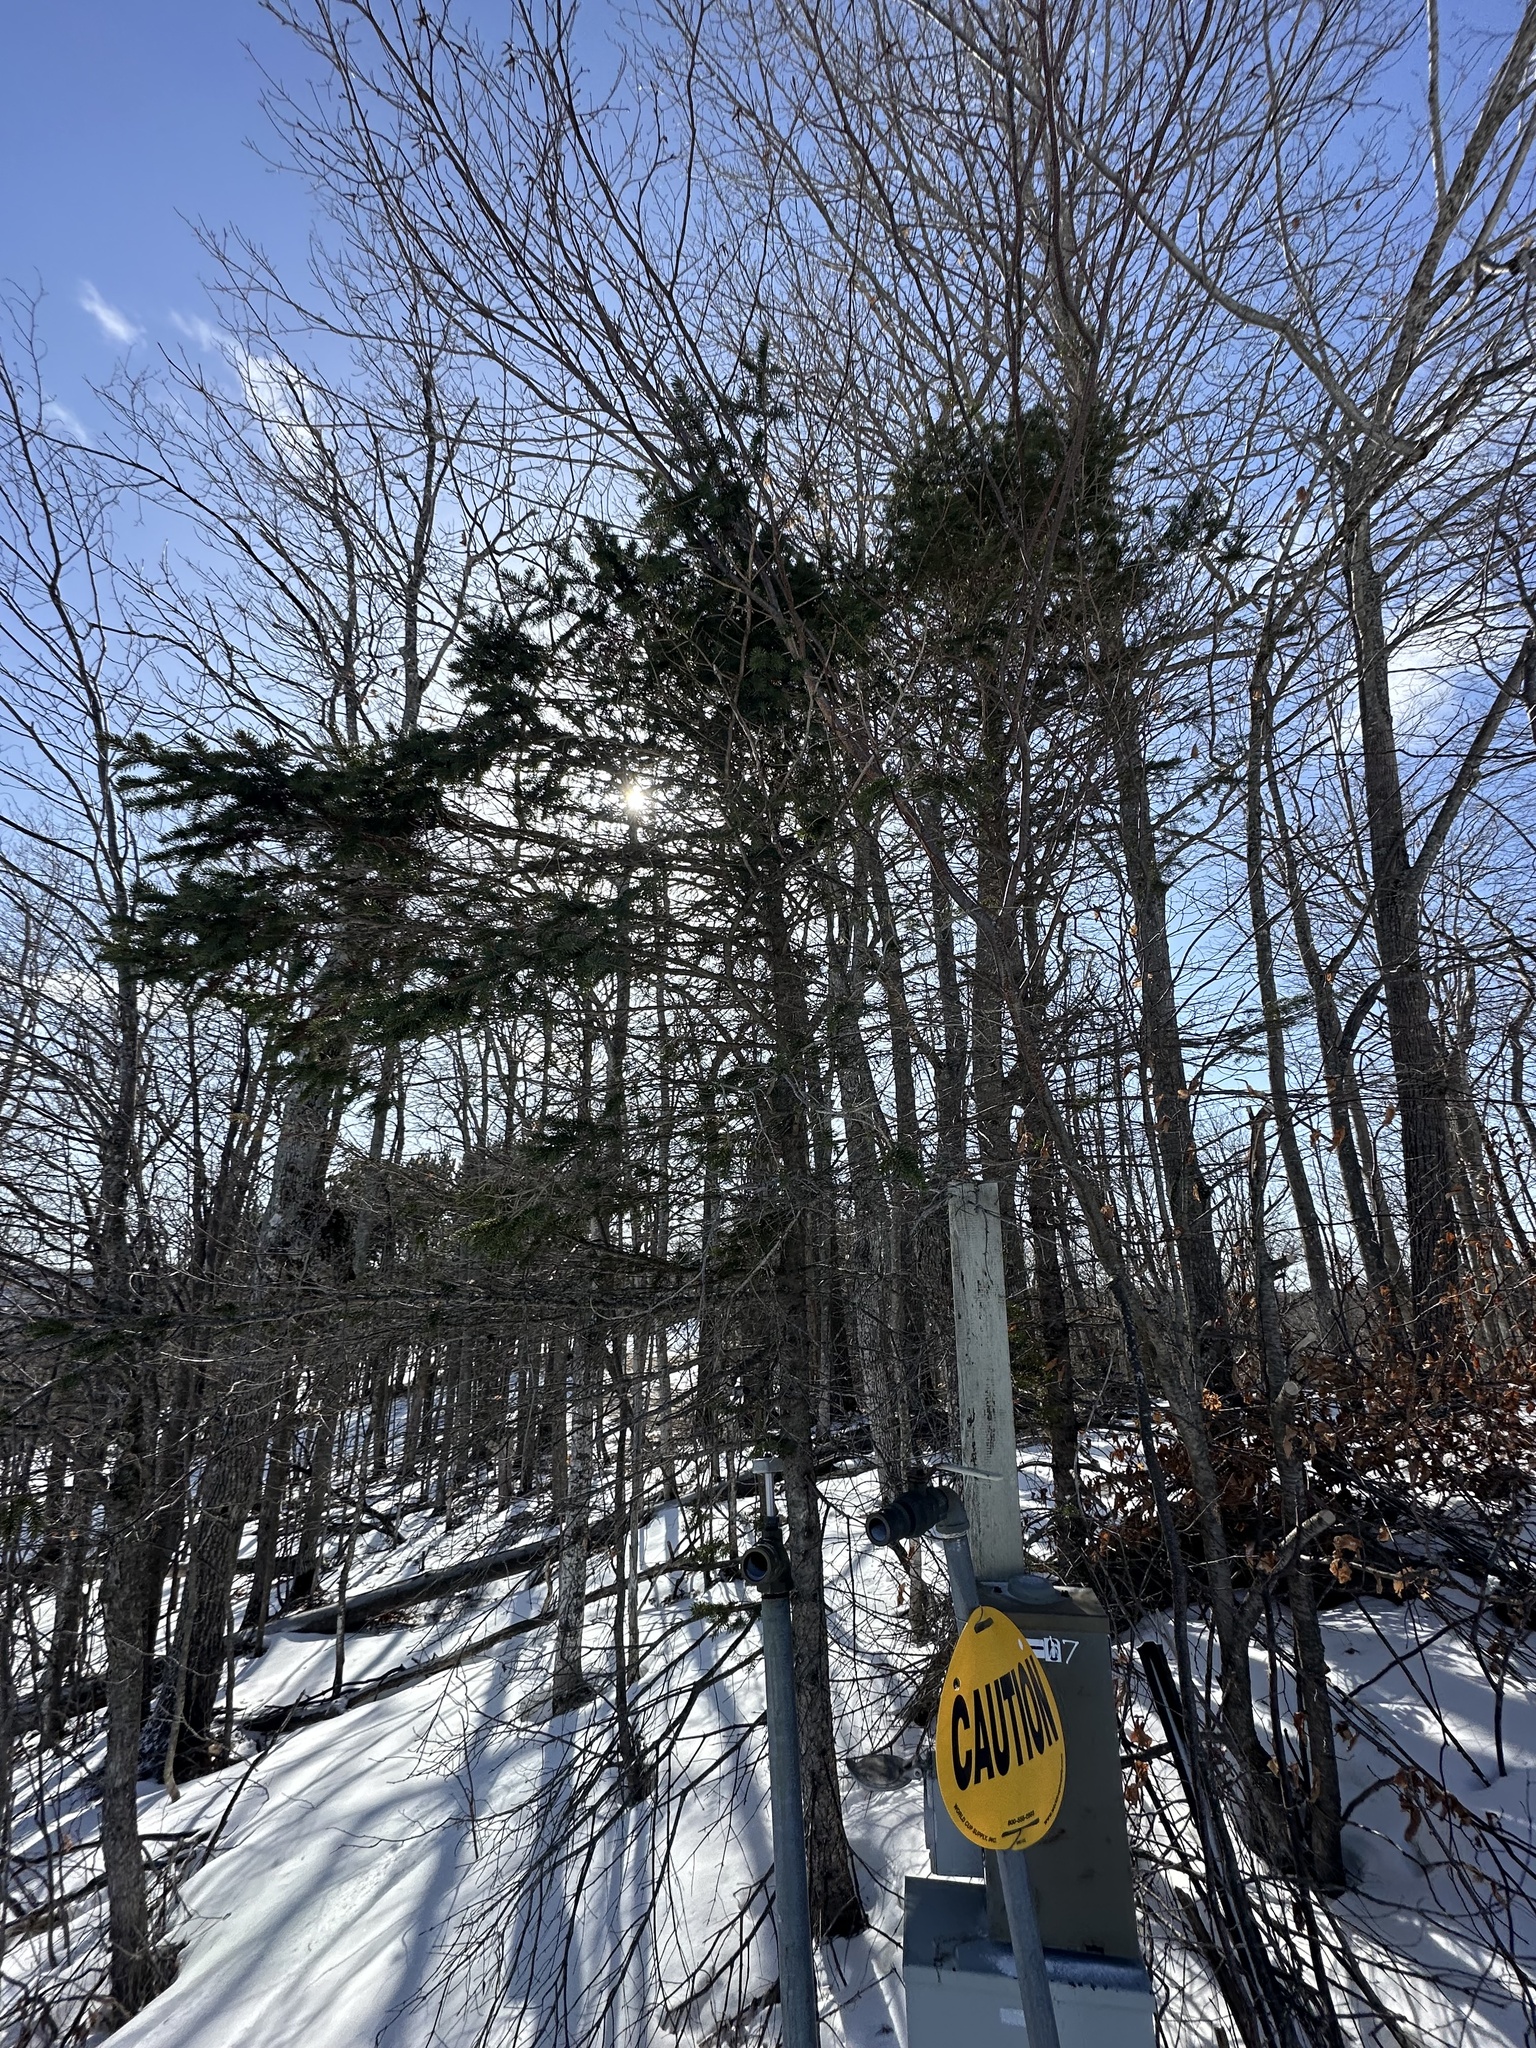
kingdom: Plantae
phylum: Tracheophyta
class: Pinopsida
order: Pinales
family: Pinaceae
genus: Picea
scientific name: Picea glauca
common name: White spruce
